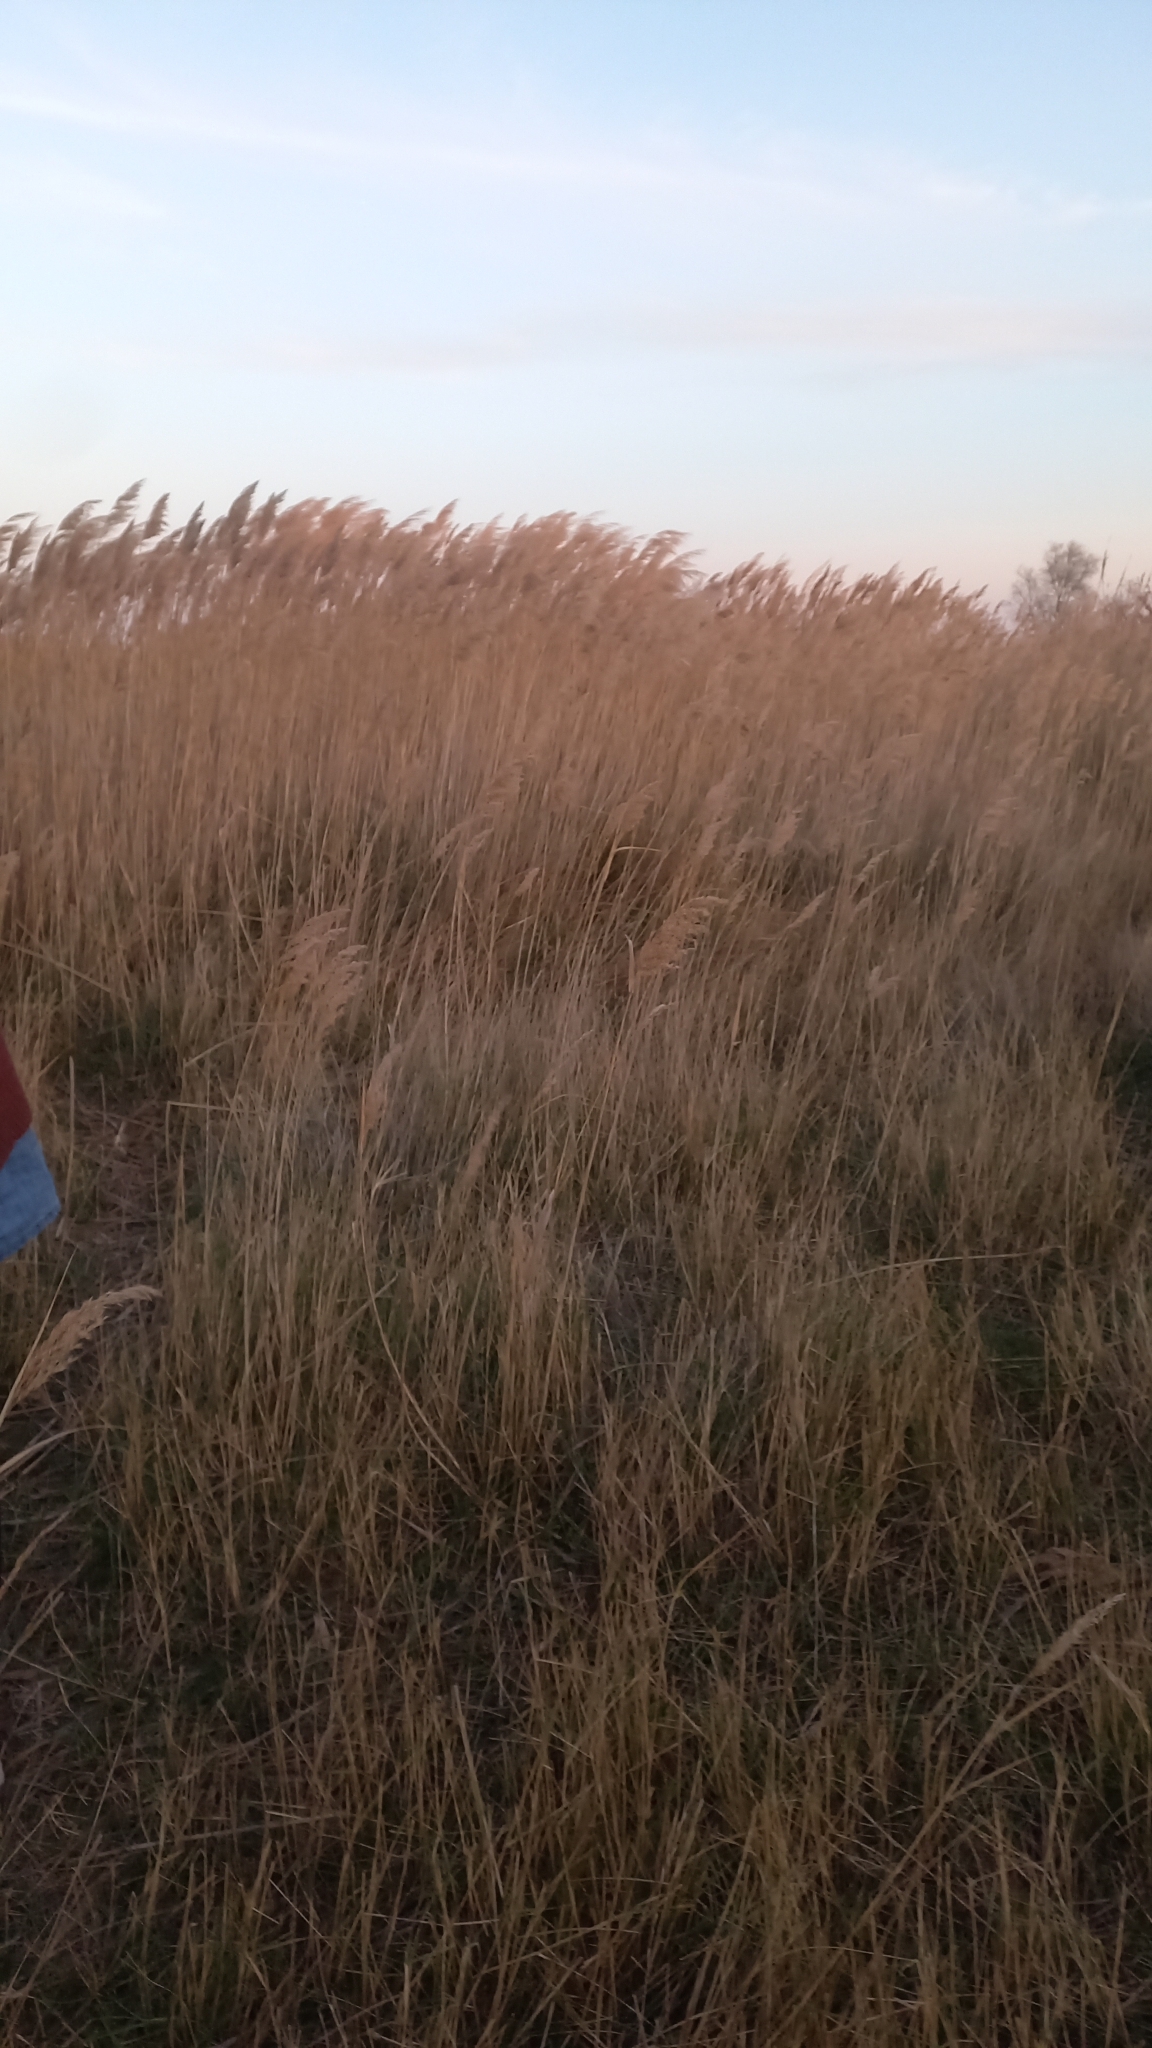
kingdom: Plantae
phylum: Tracheophyta
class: Liliopsida
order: Poales
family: Poaceae
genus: Phragmites
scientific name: Phragmites australis
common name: Common reed
